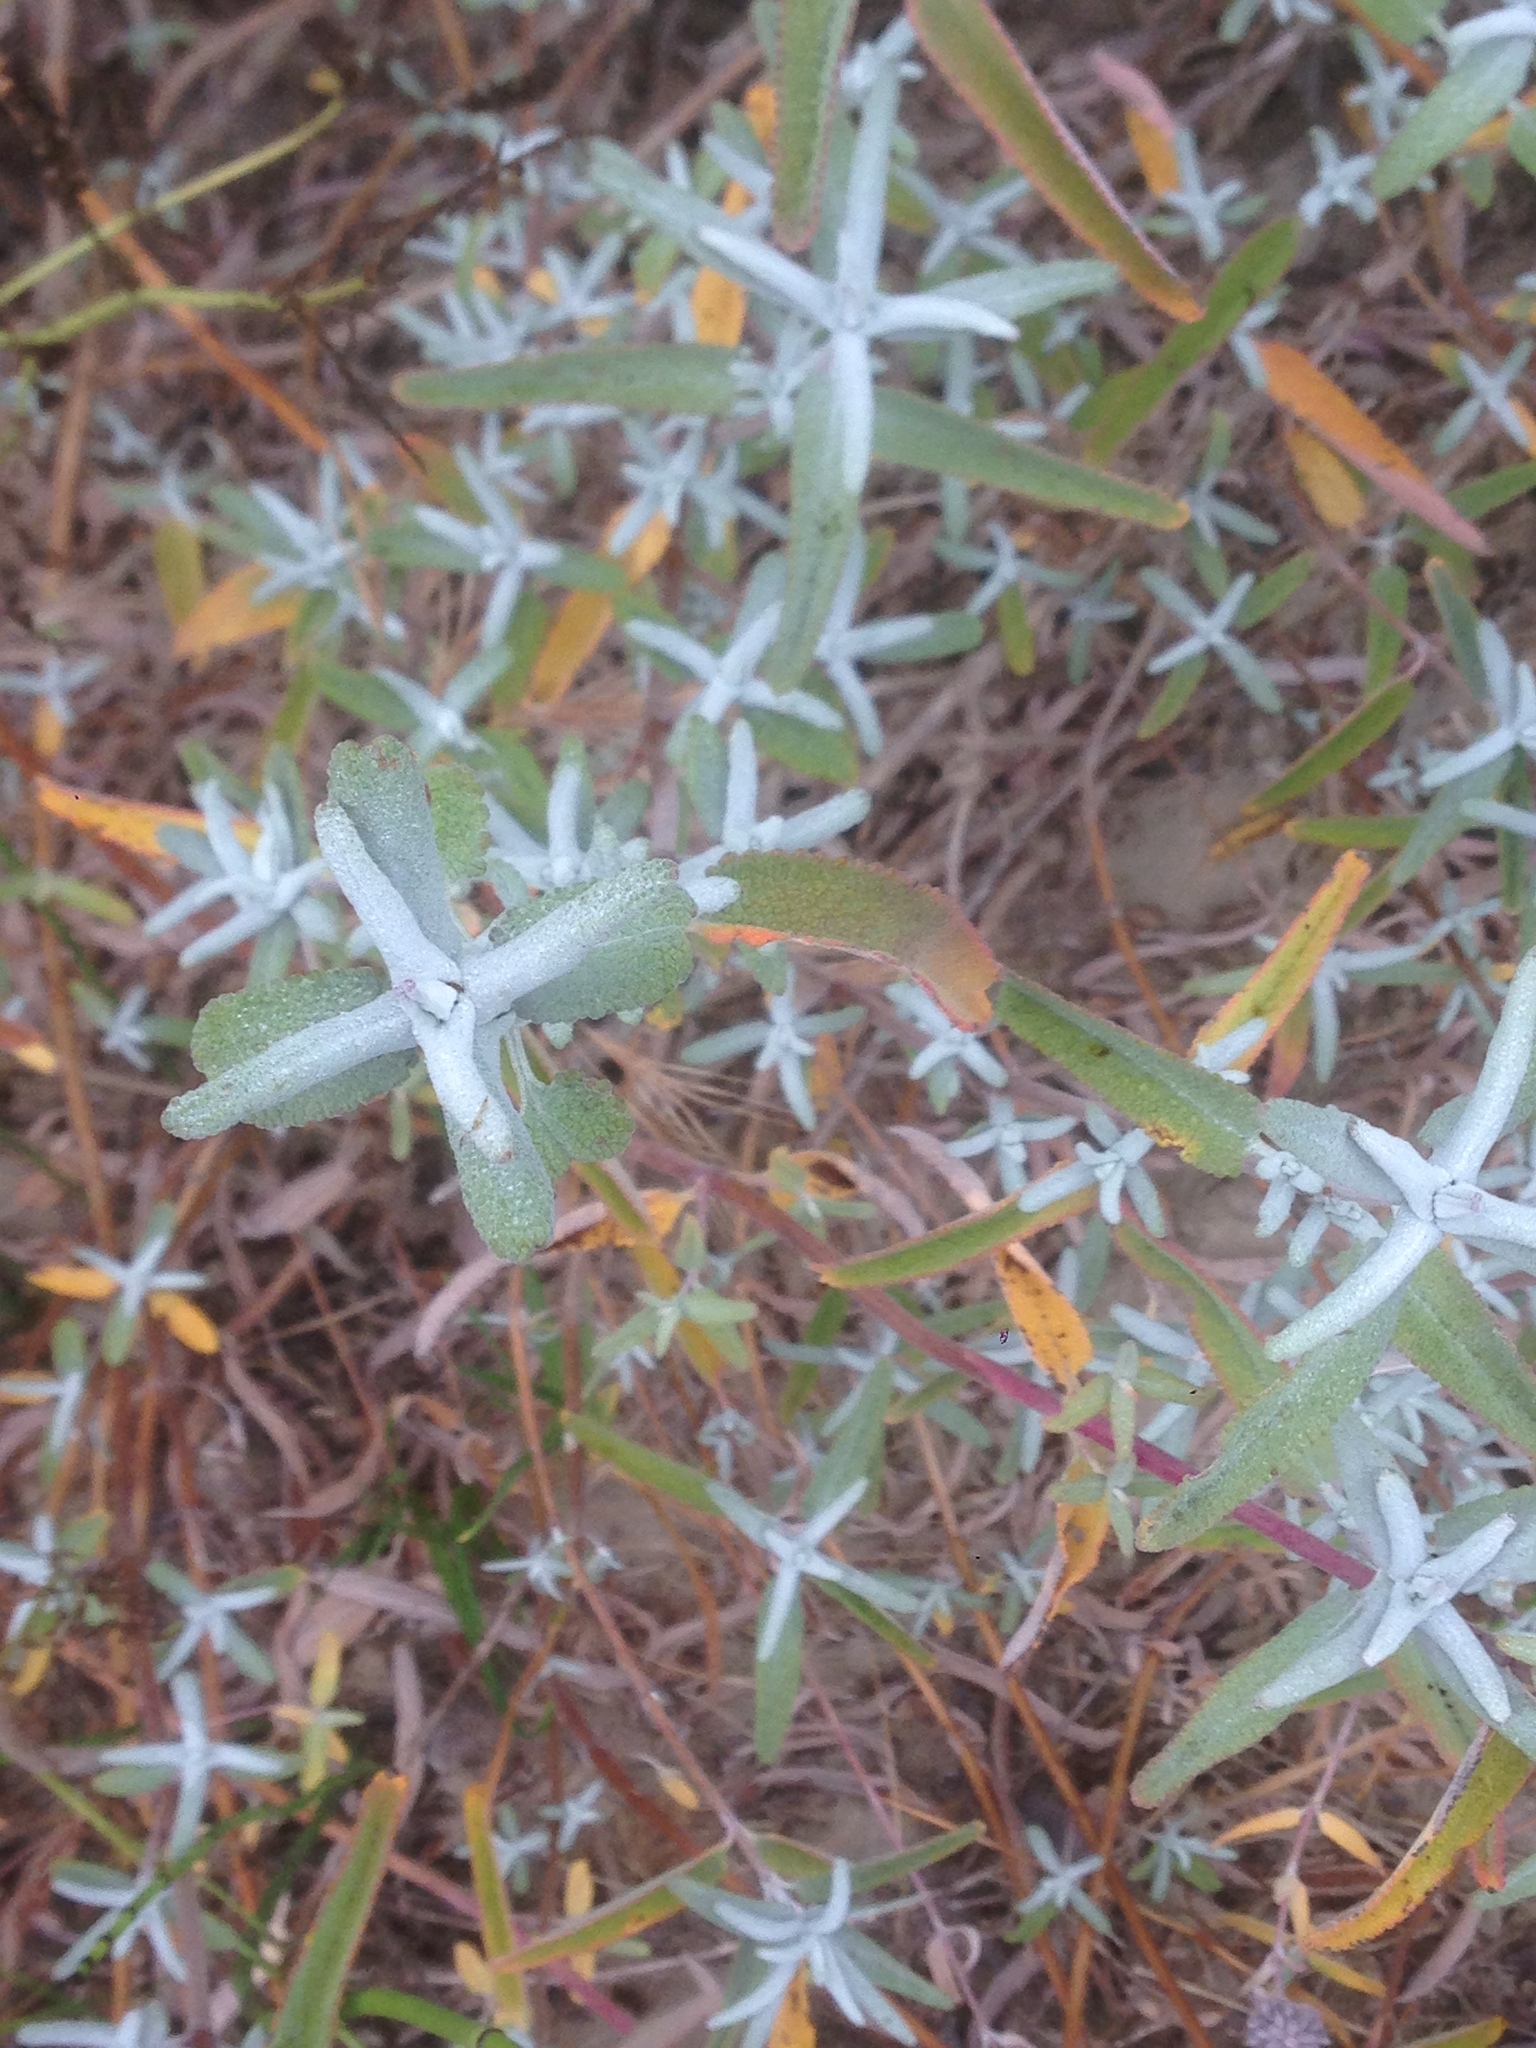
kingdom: Plantae
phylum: Tracheophyta
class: Magnoliopsida
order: Lamiales
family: Lamiaceae
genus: Salvia
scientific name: Salvia leucophylla
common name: Purple sage
